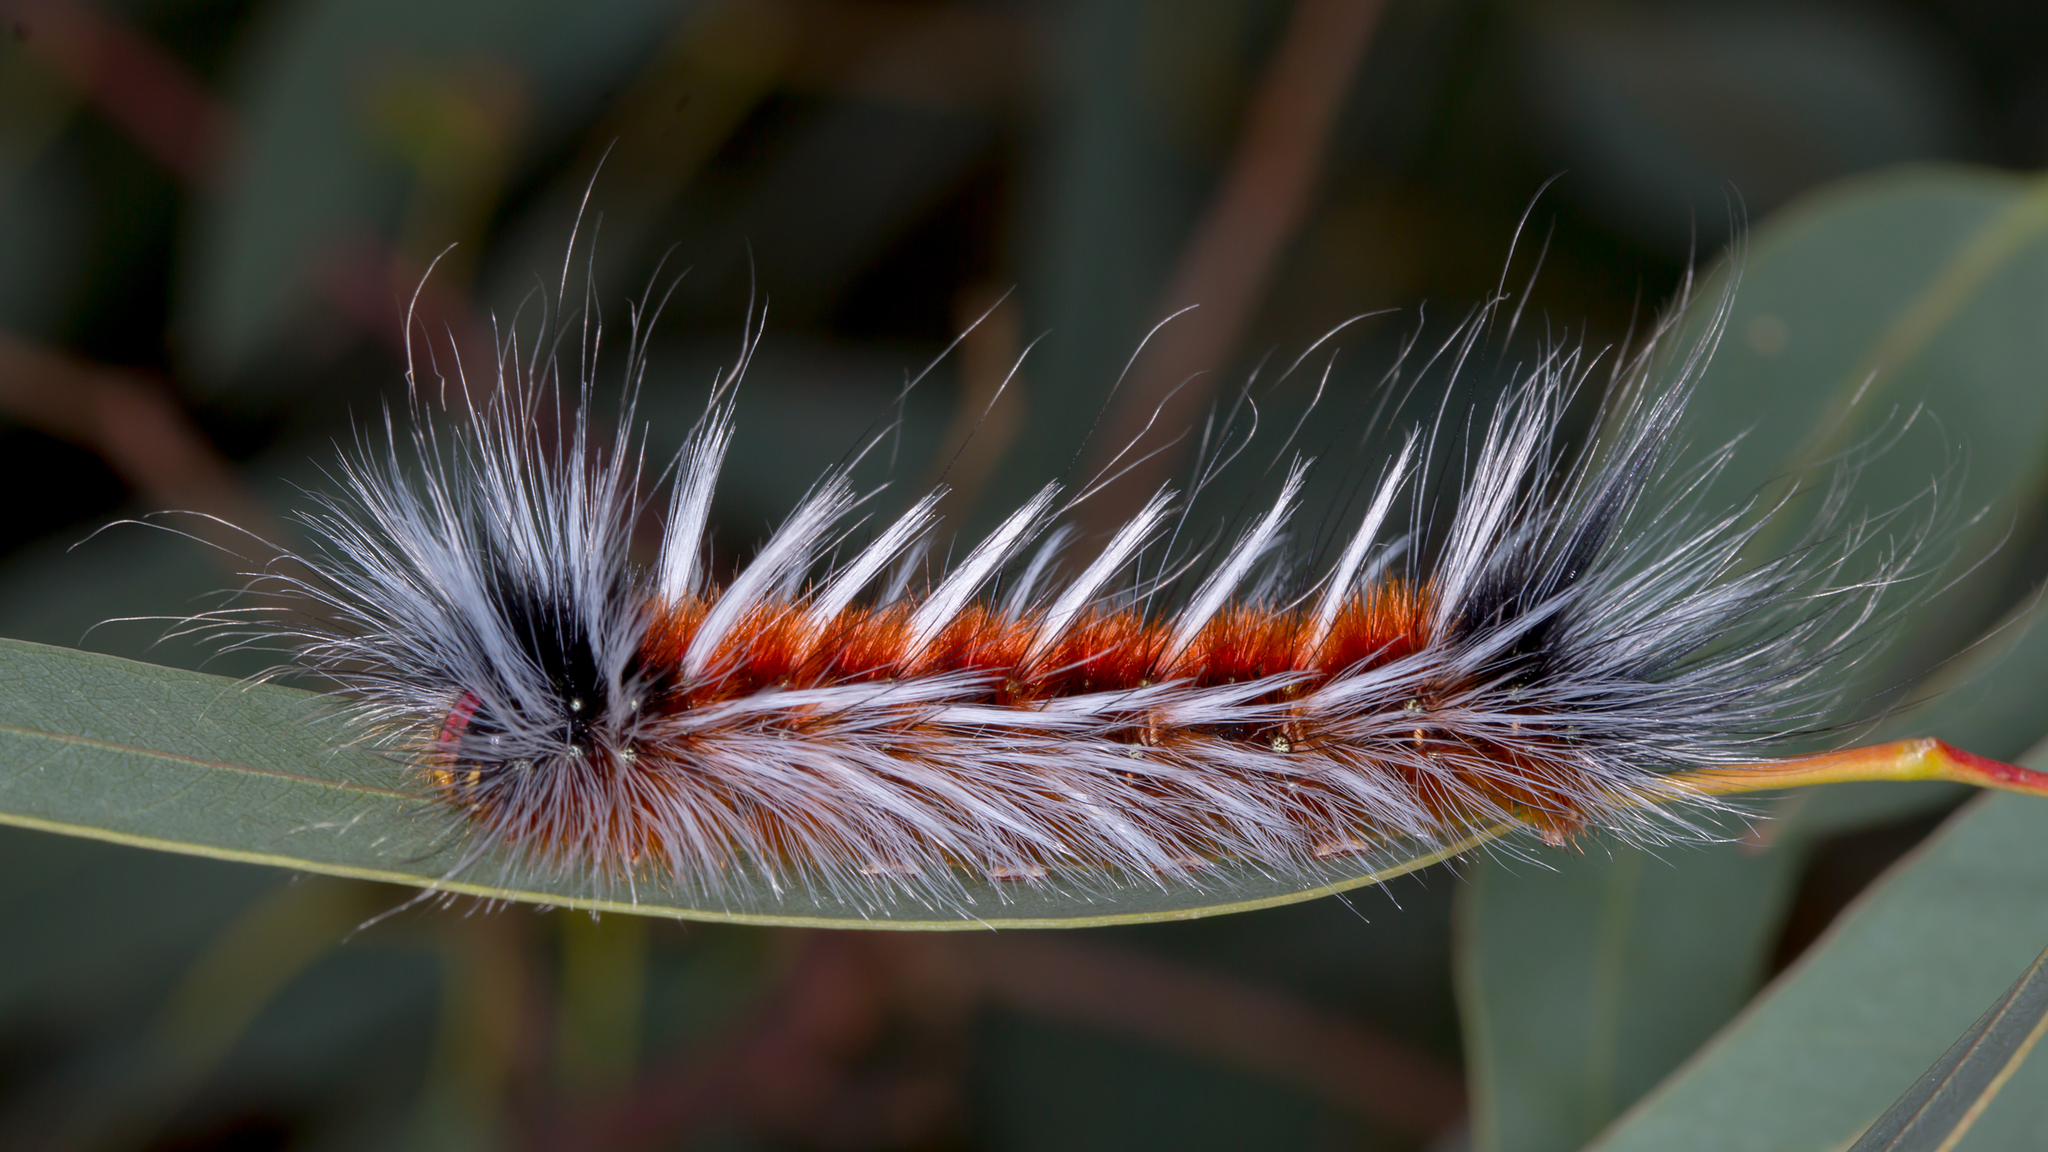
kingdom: Animalia
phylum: Arthropoda
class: Insecta
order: Lepidoptera
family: Anthelidae
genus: Anthela
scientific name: Anthela varia
